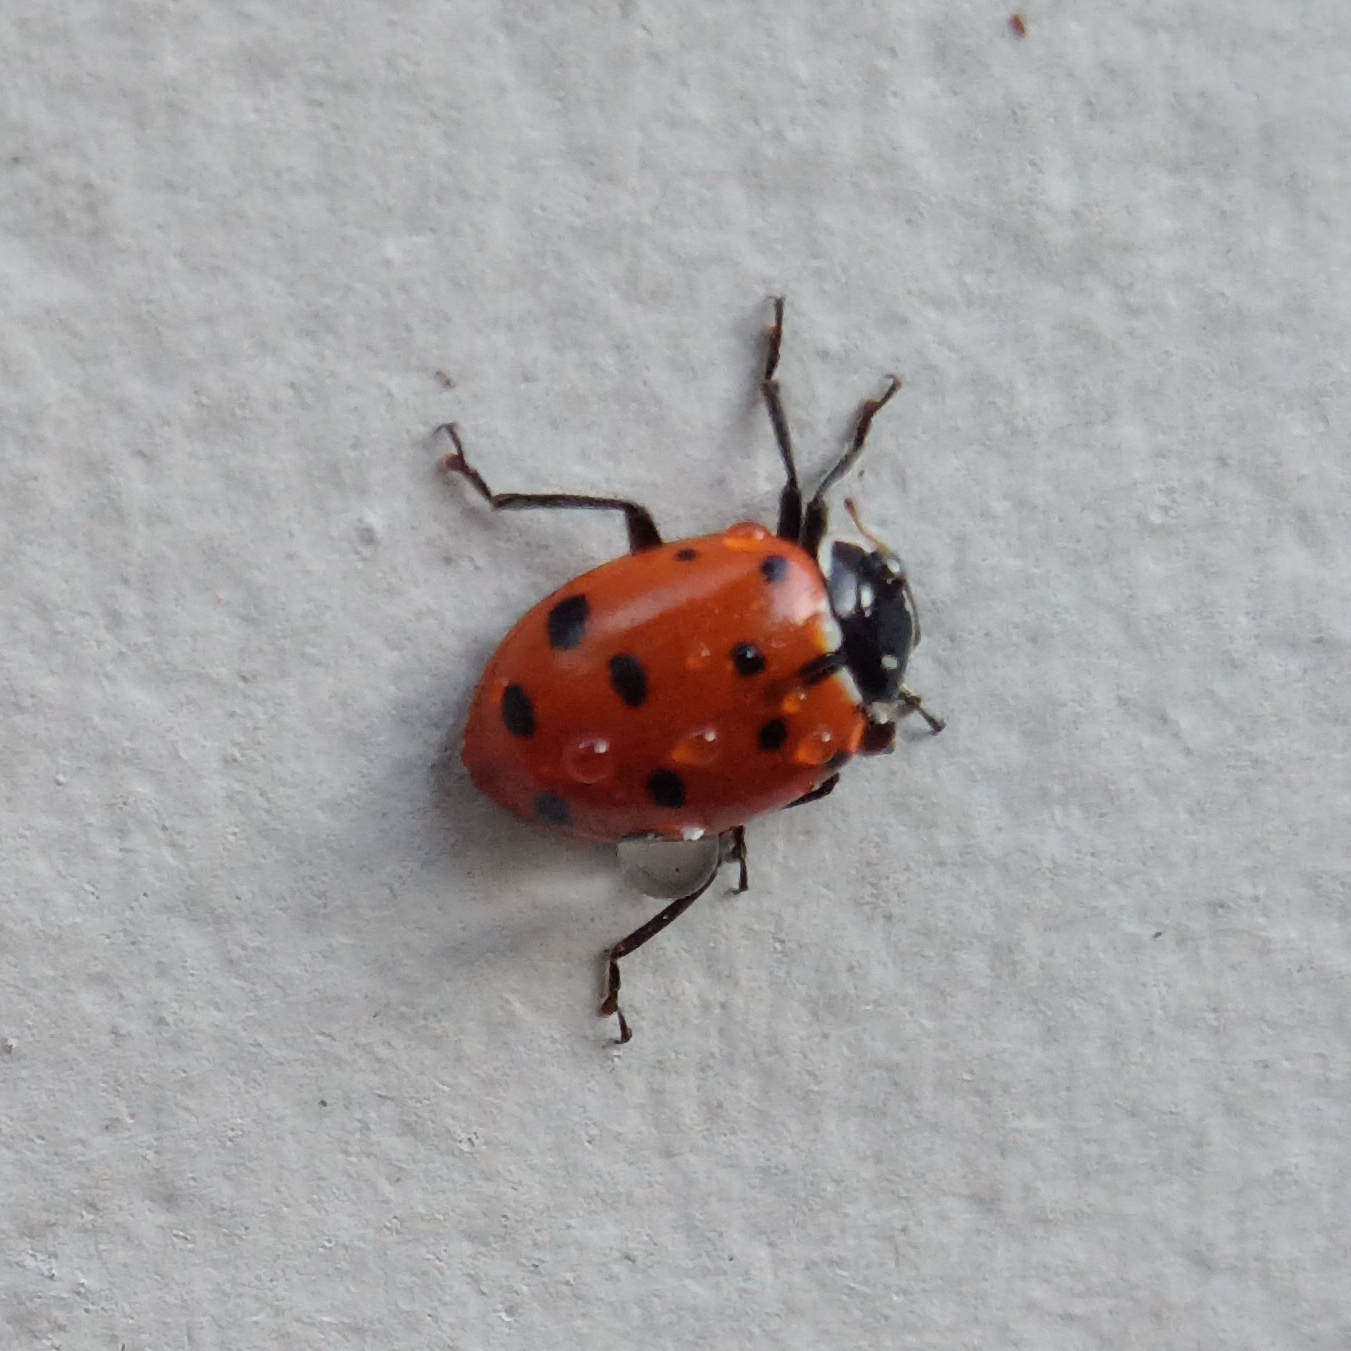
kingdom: Animalia
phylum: Arthropoda
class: Insecta
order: Coleoptera
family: Coccinellidae
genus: Hippodamia
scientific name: Hippodamia convergens
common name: Convergent lady beetle
